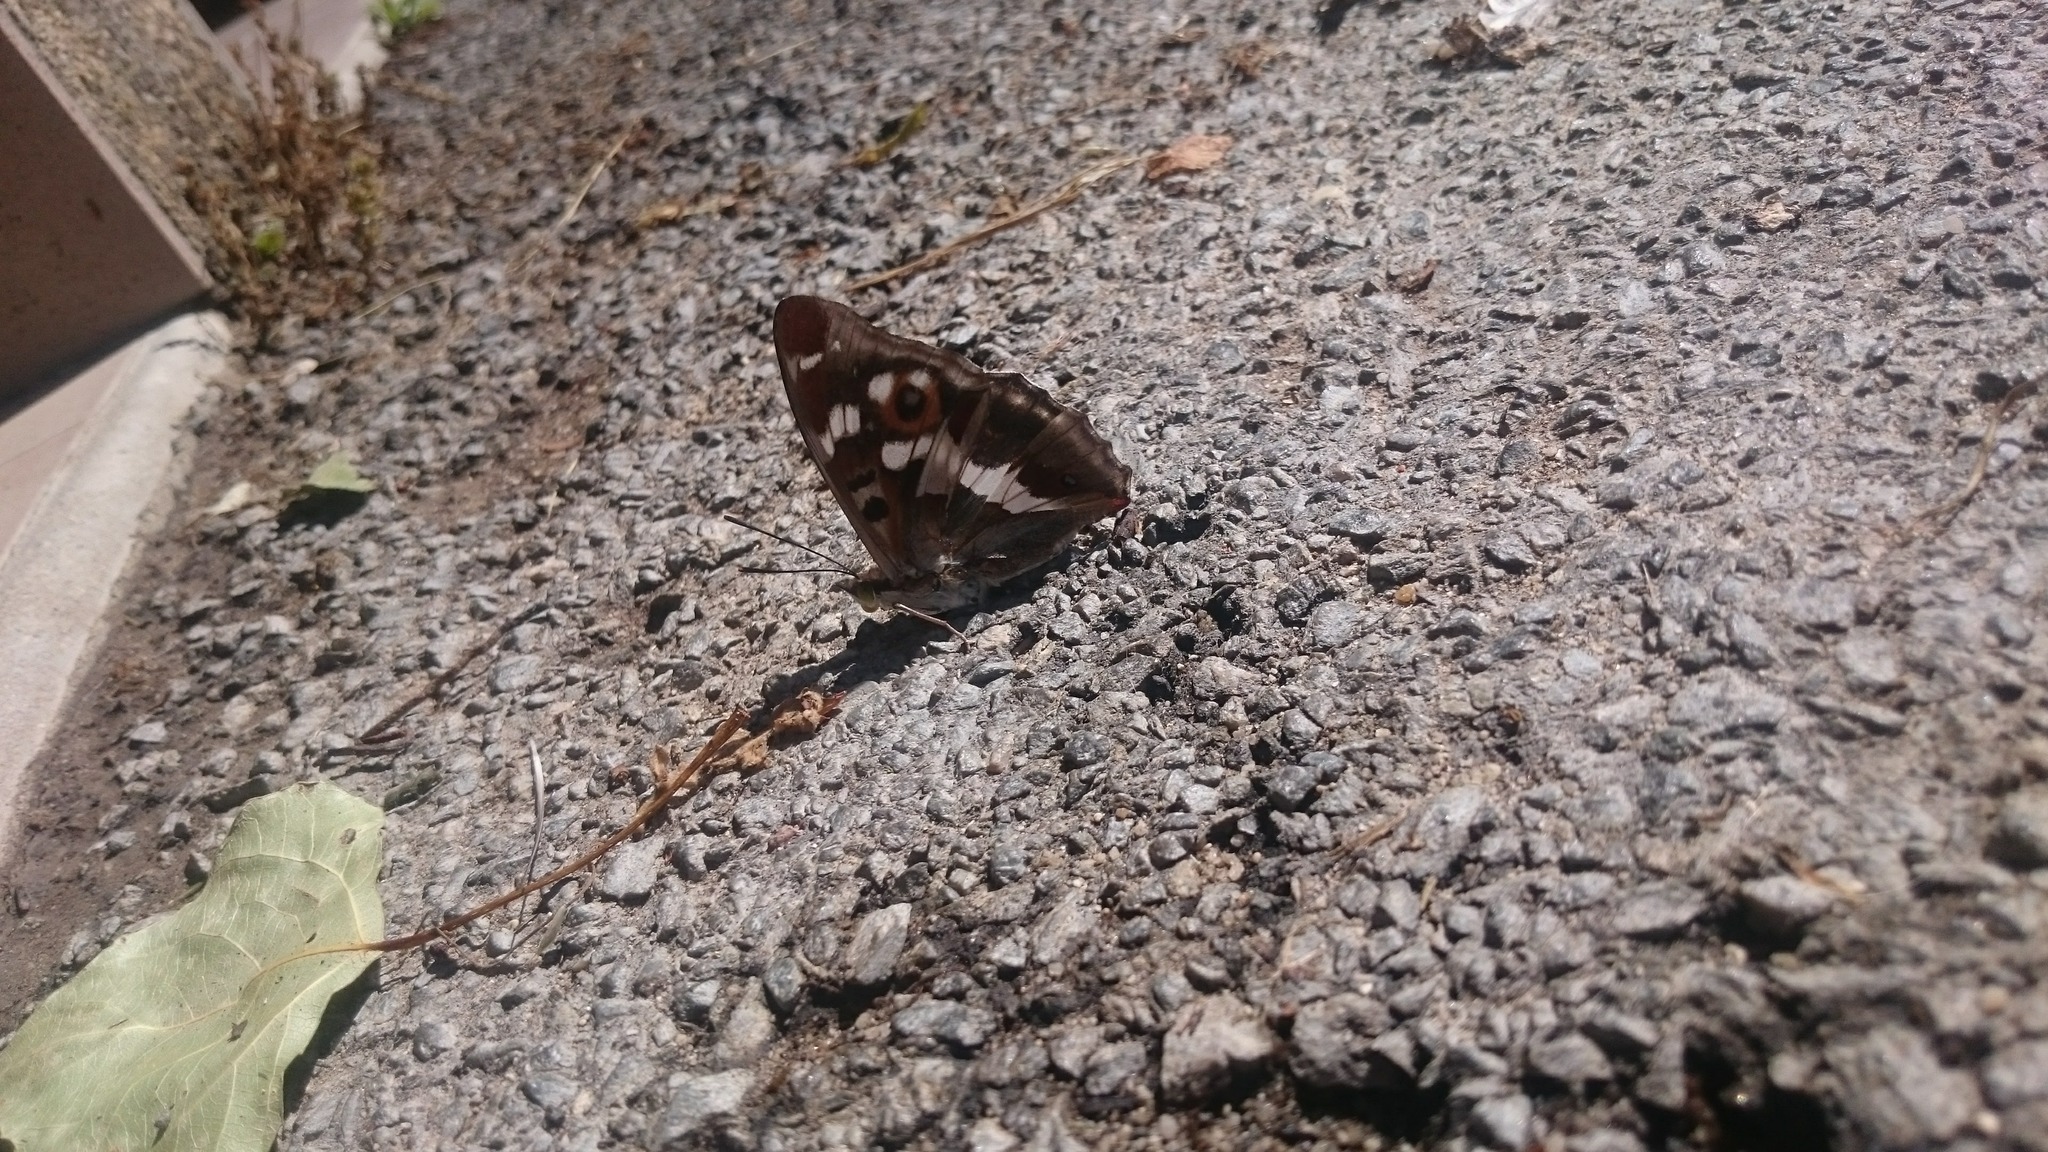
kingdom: Animalia
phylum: Arthropoda
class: Insecta
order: Lepidoptera
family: Nymphalidae
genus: Apatura
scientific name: Apatura iris
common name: Purple emperor
